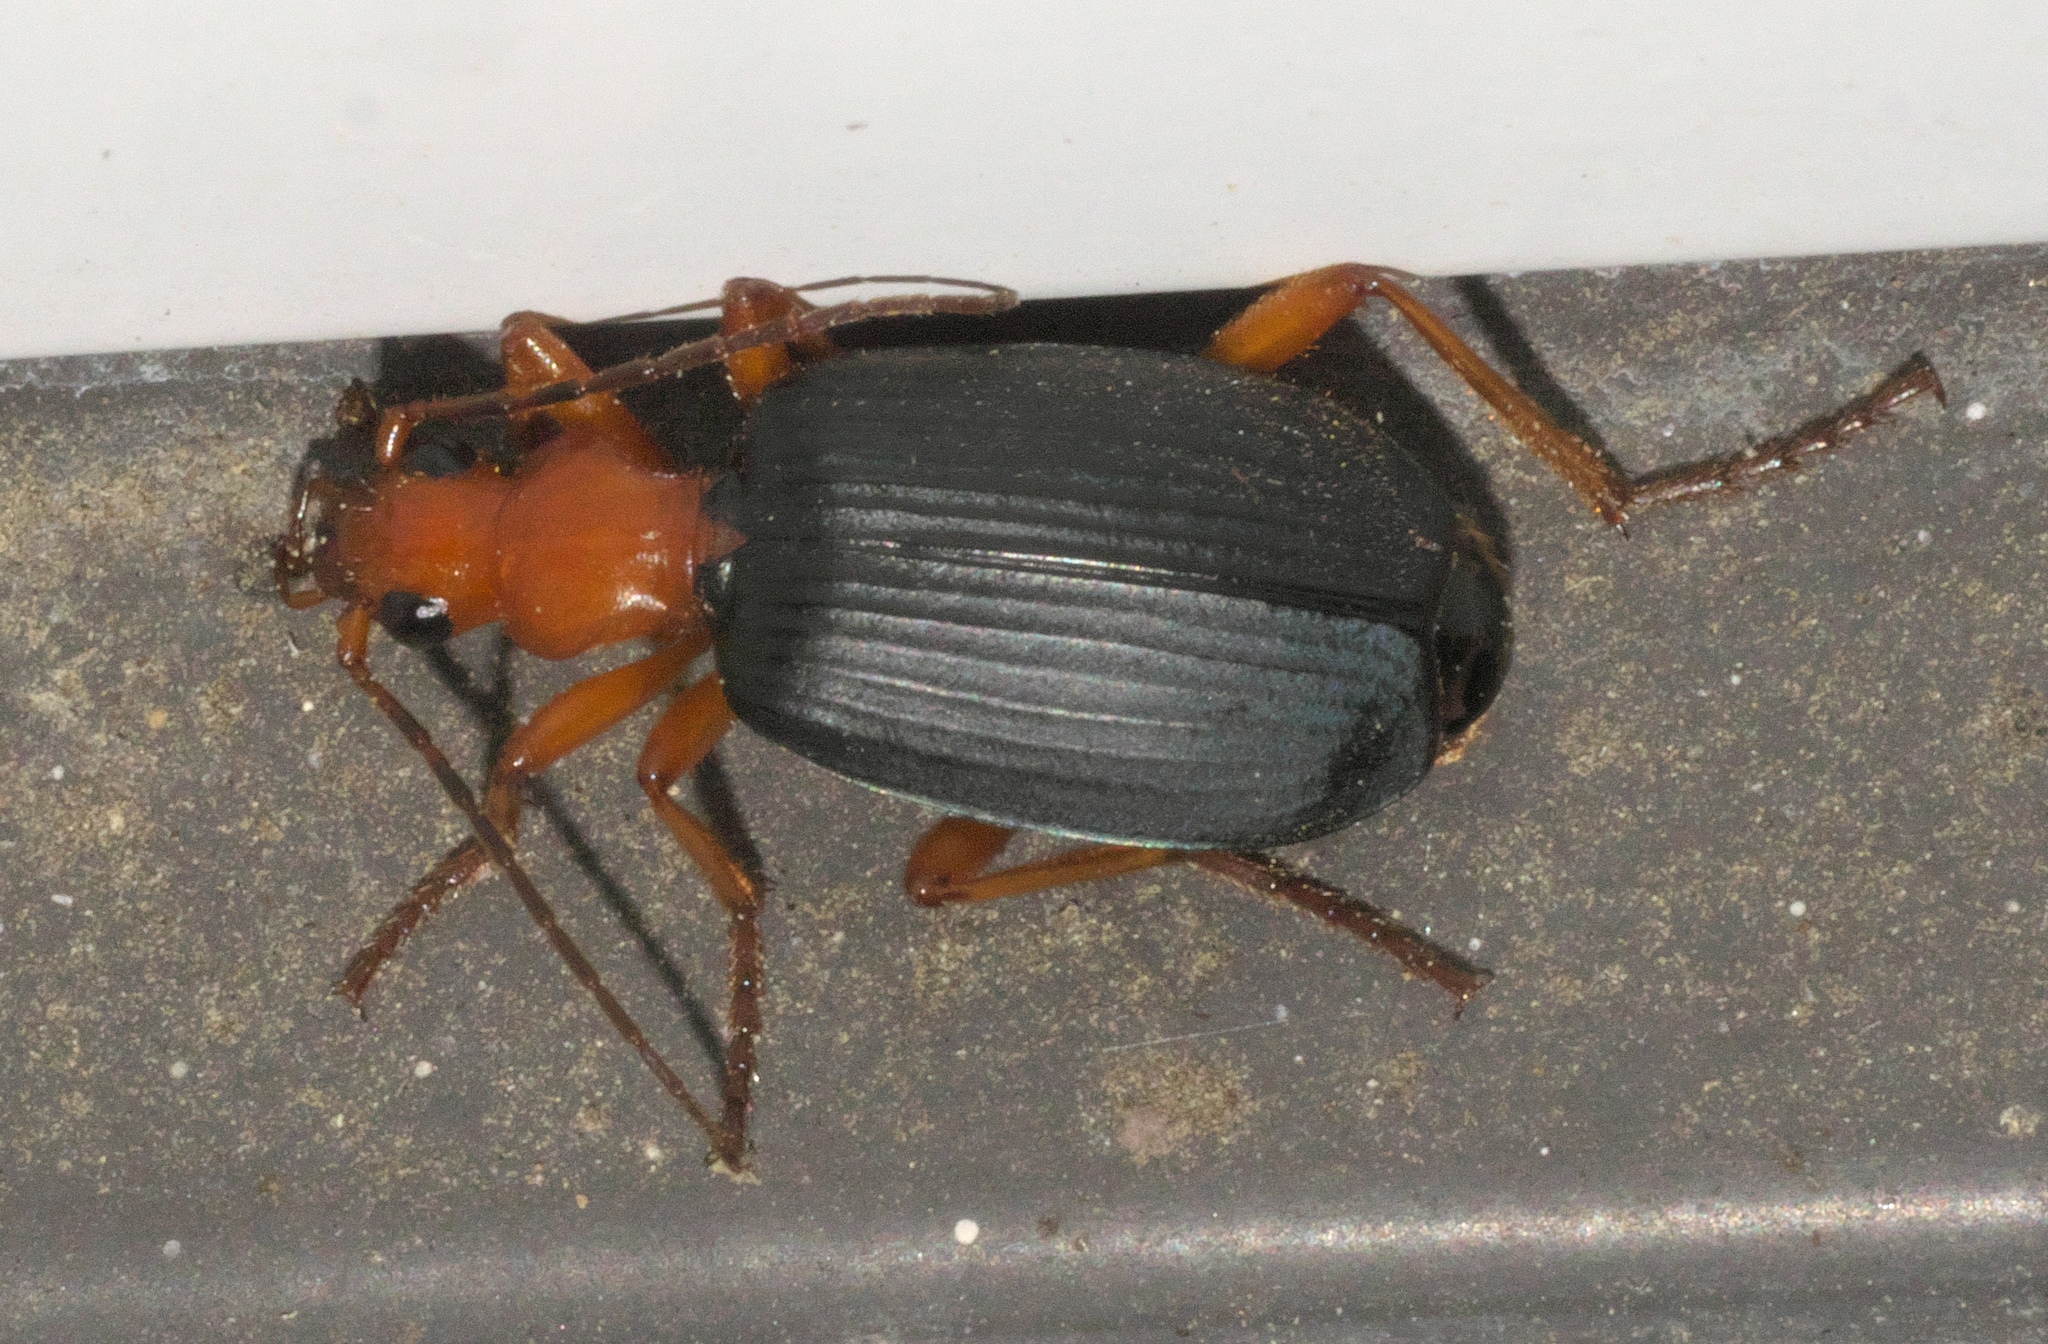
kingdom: Animalia
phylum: Arthropoda
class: Insecta
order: Coleoptera
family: Carabidae
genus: Brachinus
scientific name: Brachinus
